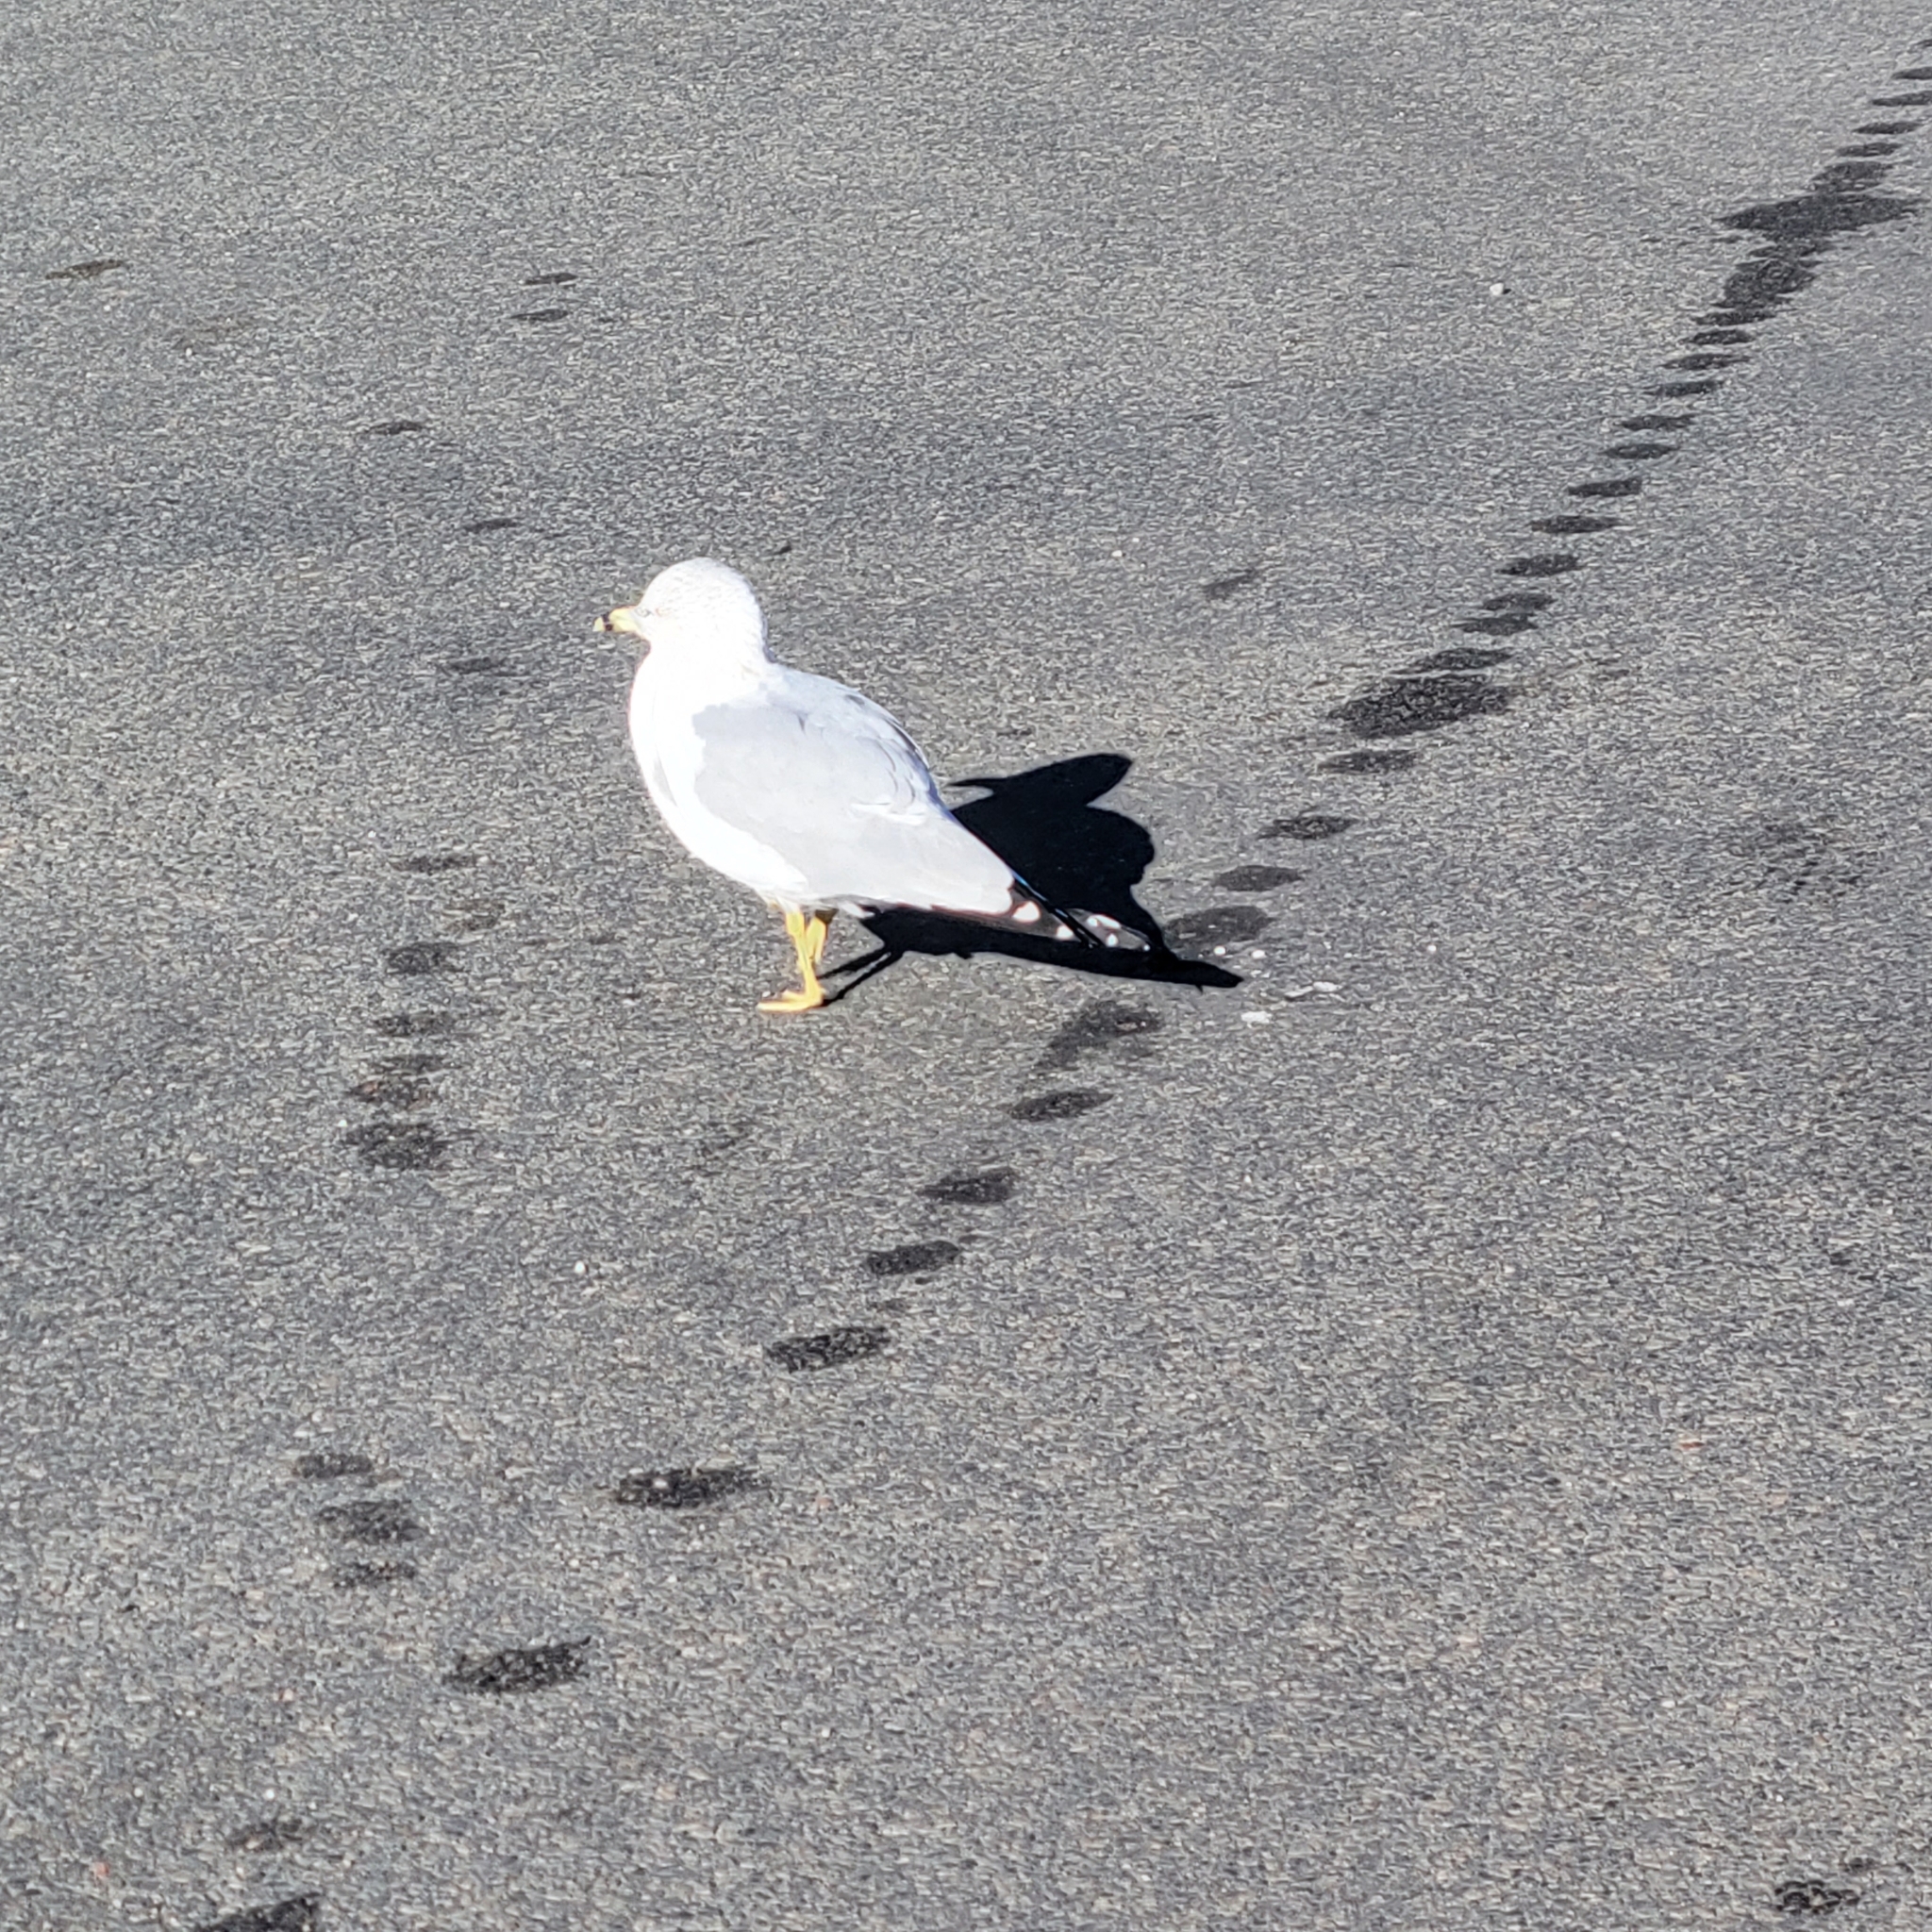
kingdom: Animalia
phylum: Chordata
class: Aves
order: Charadriiformes
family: Laridae
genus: Larus
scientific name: Larus delawarensis
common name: Ring-billed gull
